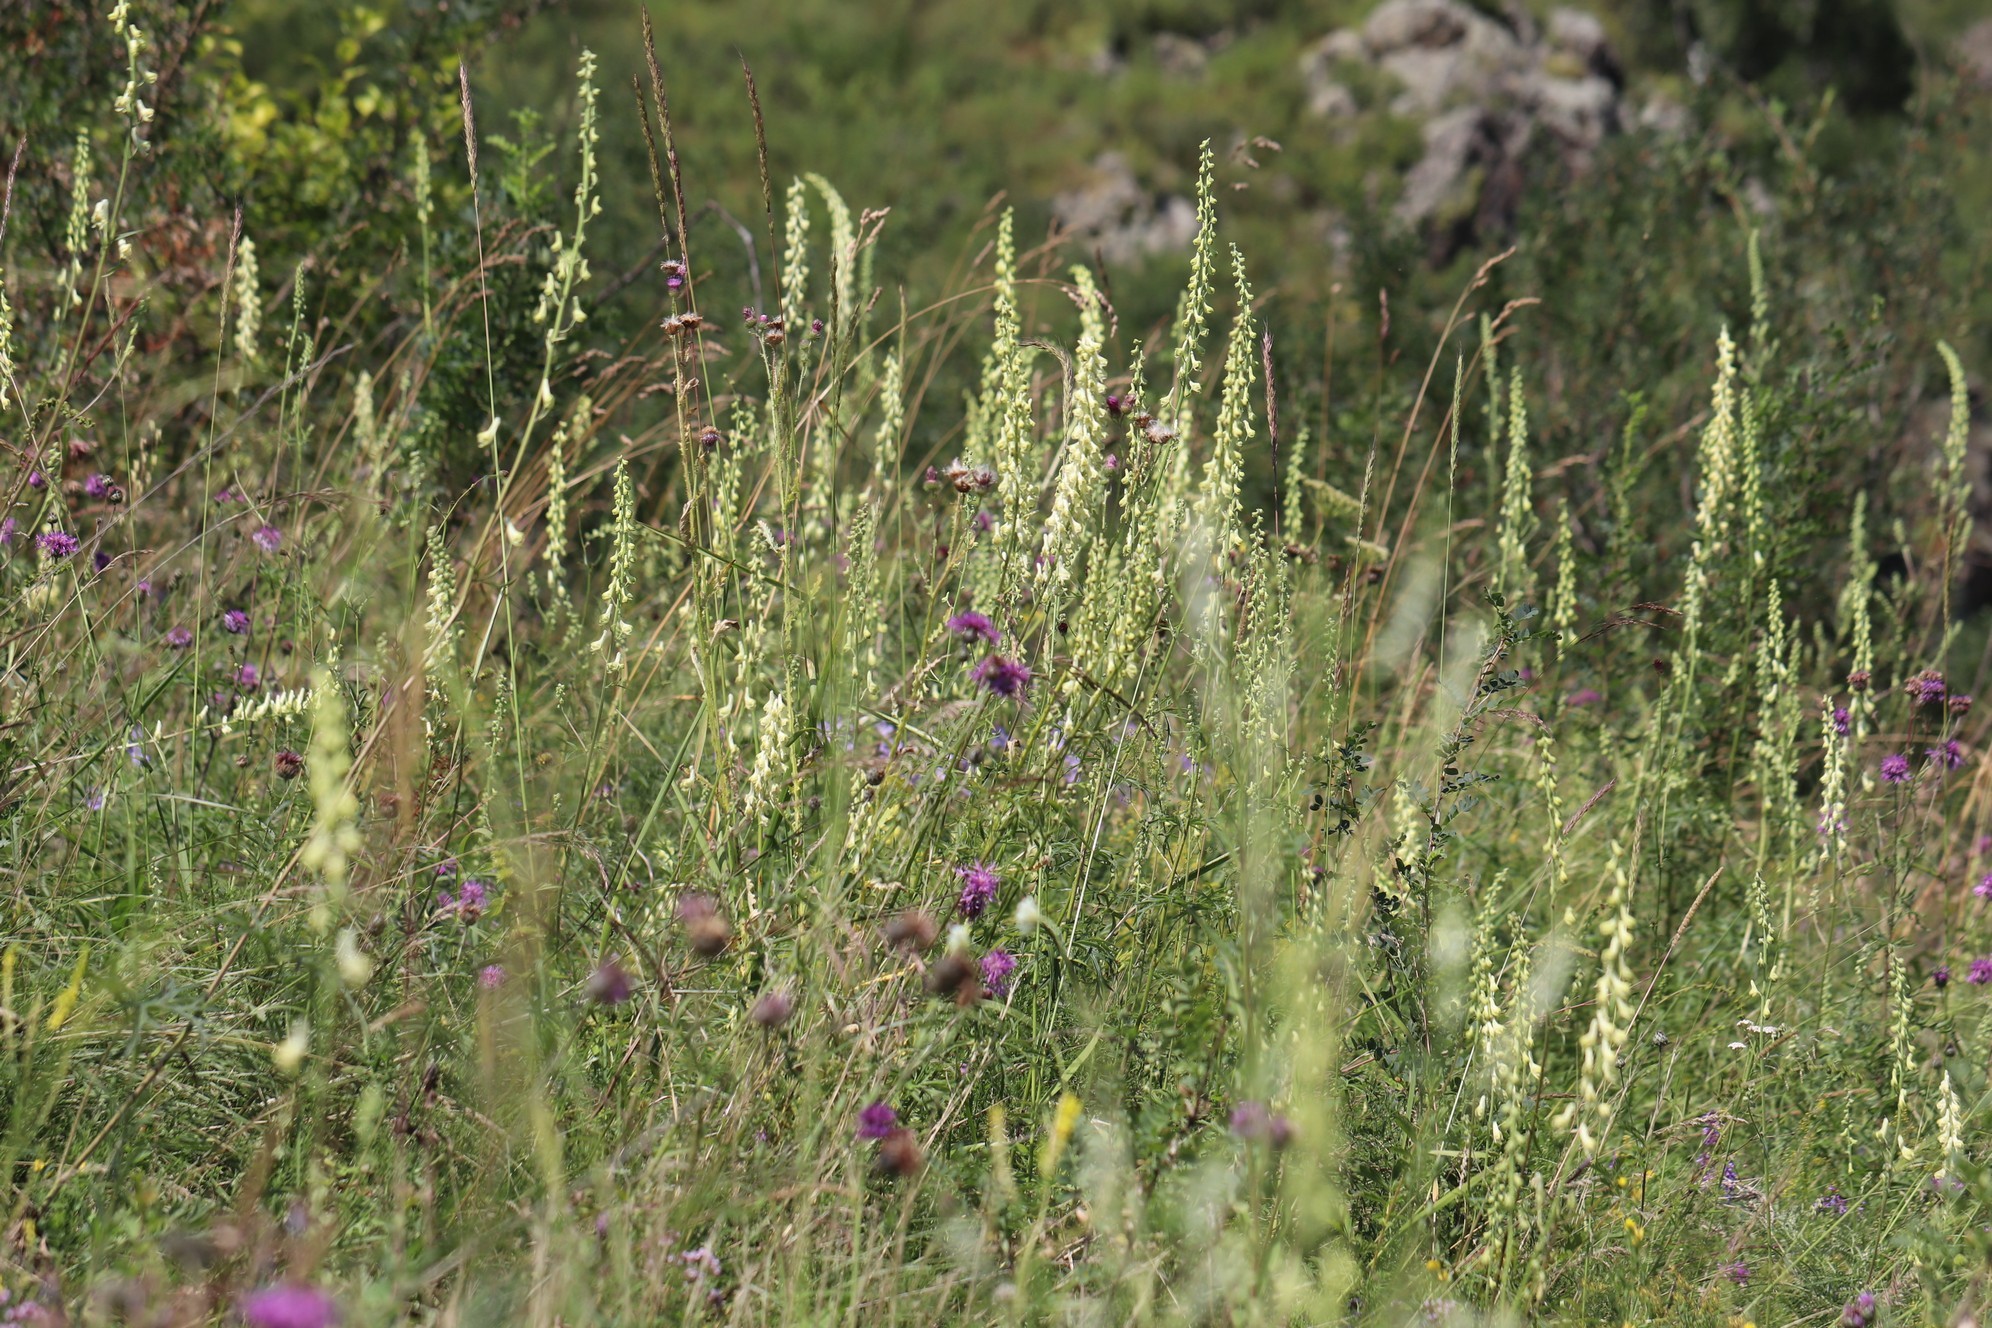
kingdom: Plantae
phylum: Tracheophyta
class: Magnoliopsida
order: Ranunculales
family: Ranunculaceae
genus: Aconitum
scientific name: Aconitum barbatum
